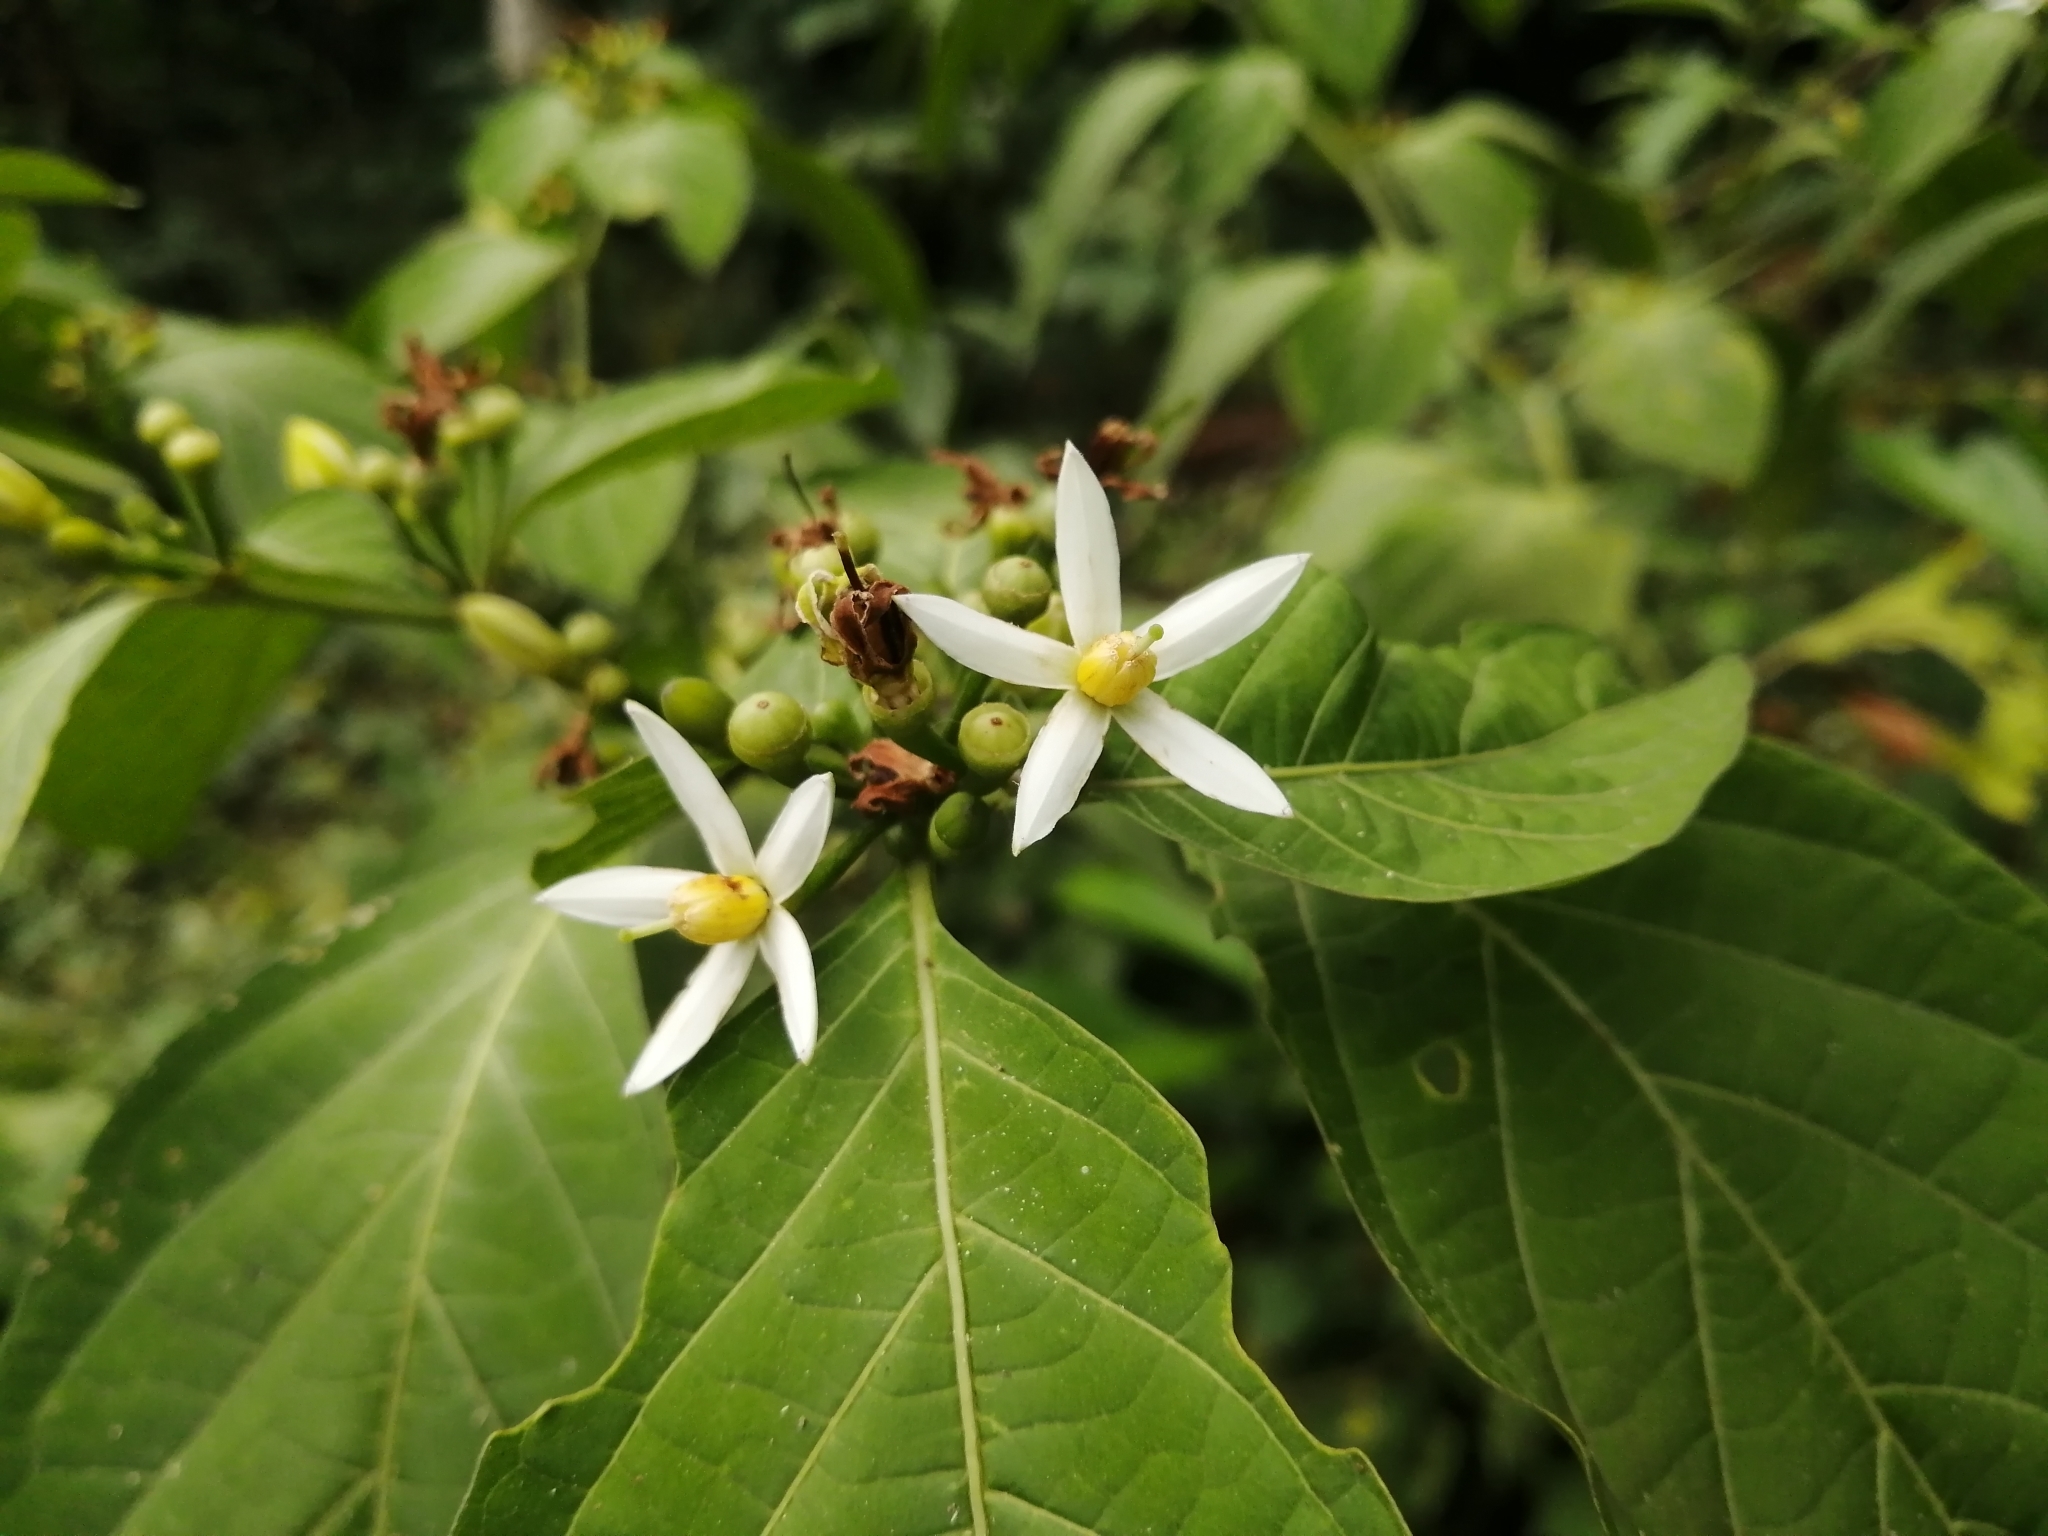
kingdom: Plantae
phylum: Tracheophyta
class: Magnoliopsida
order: Solanales
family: Solanaceae
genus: Lycianthes
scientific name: Lycianthes heteroclita
